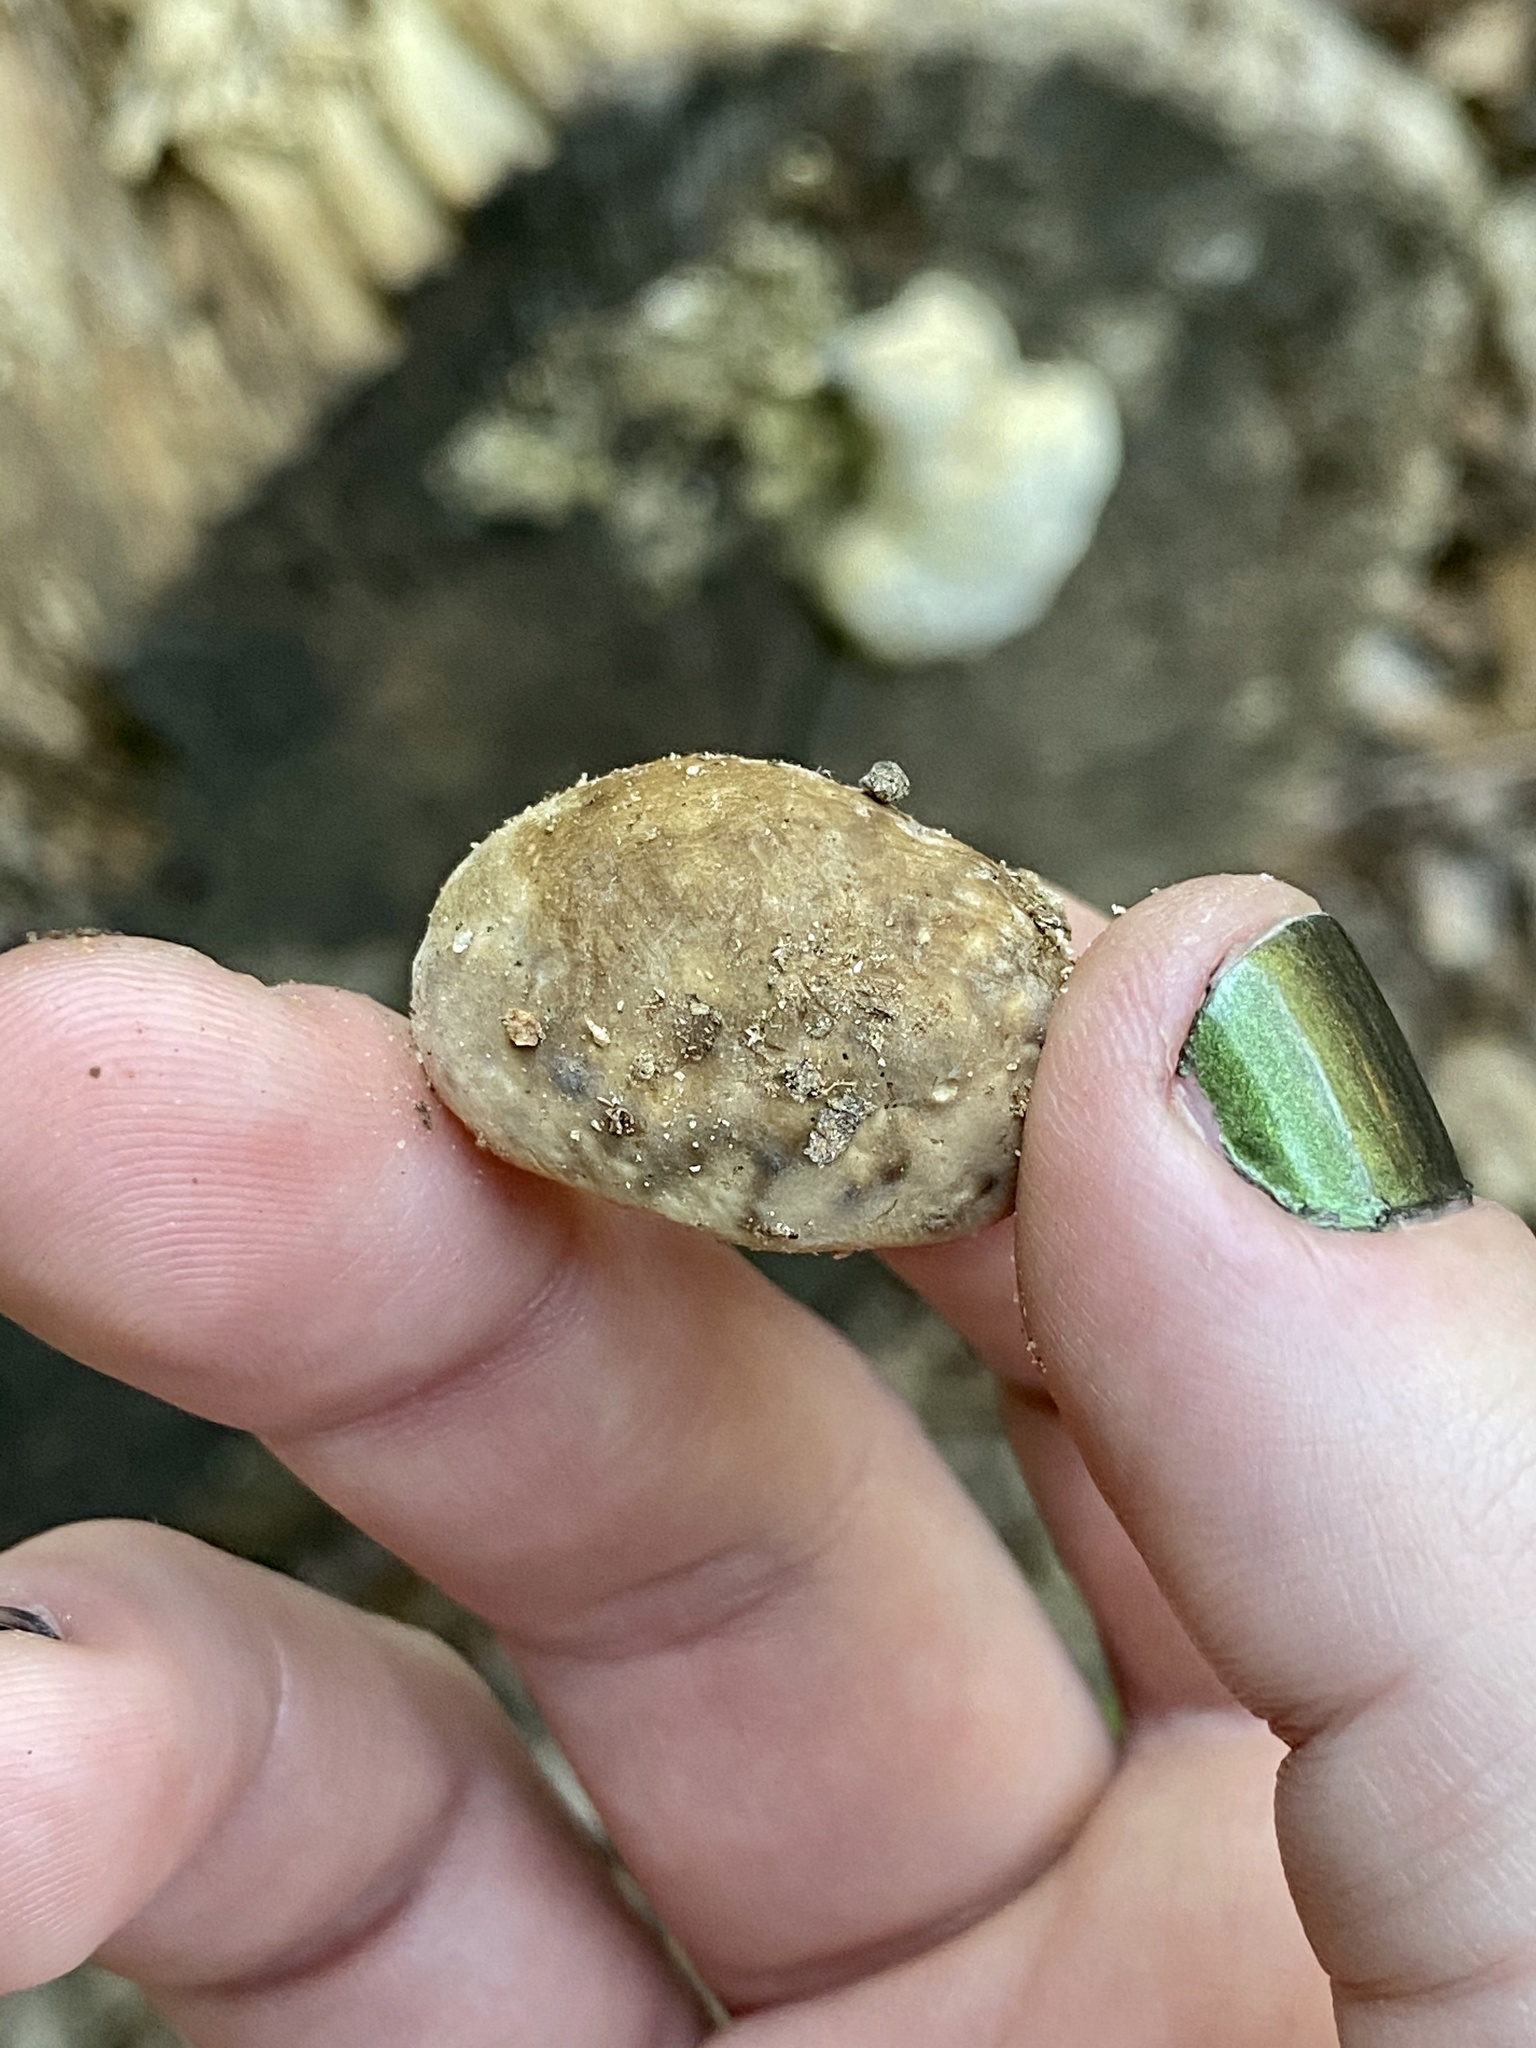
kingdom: Fungi
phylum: Basidiomycota
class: Agaricomycetes
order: Polyporales
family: Polyporaceae
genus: Trametes
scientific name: Trametes gibbosa
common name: Lumpy bracket
